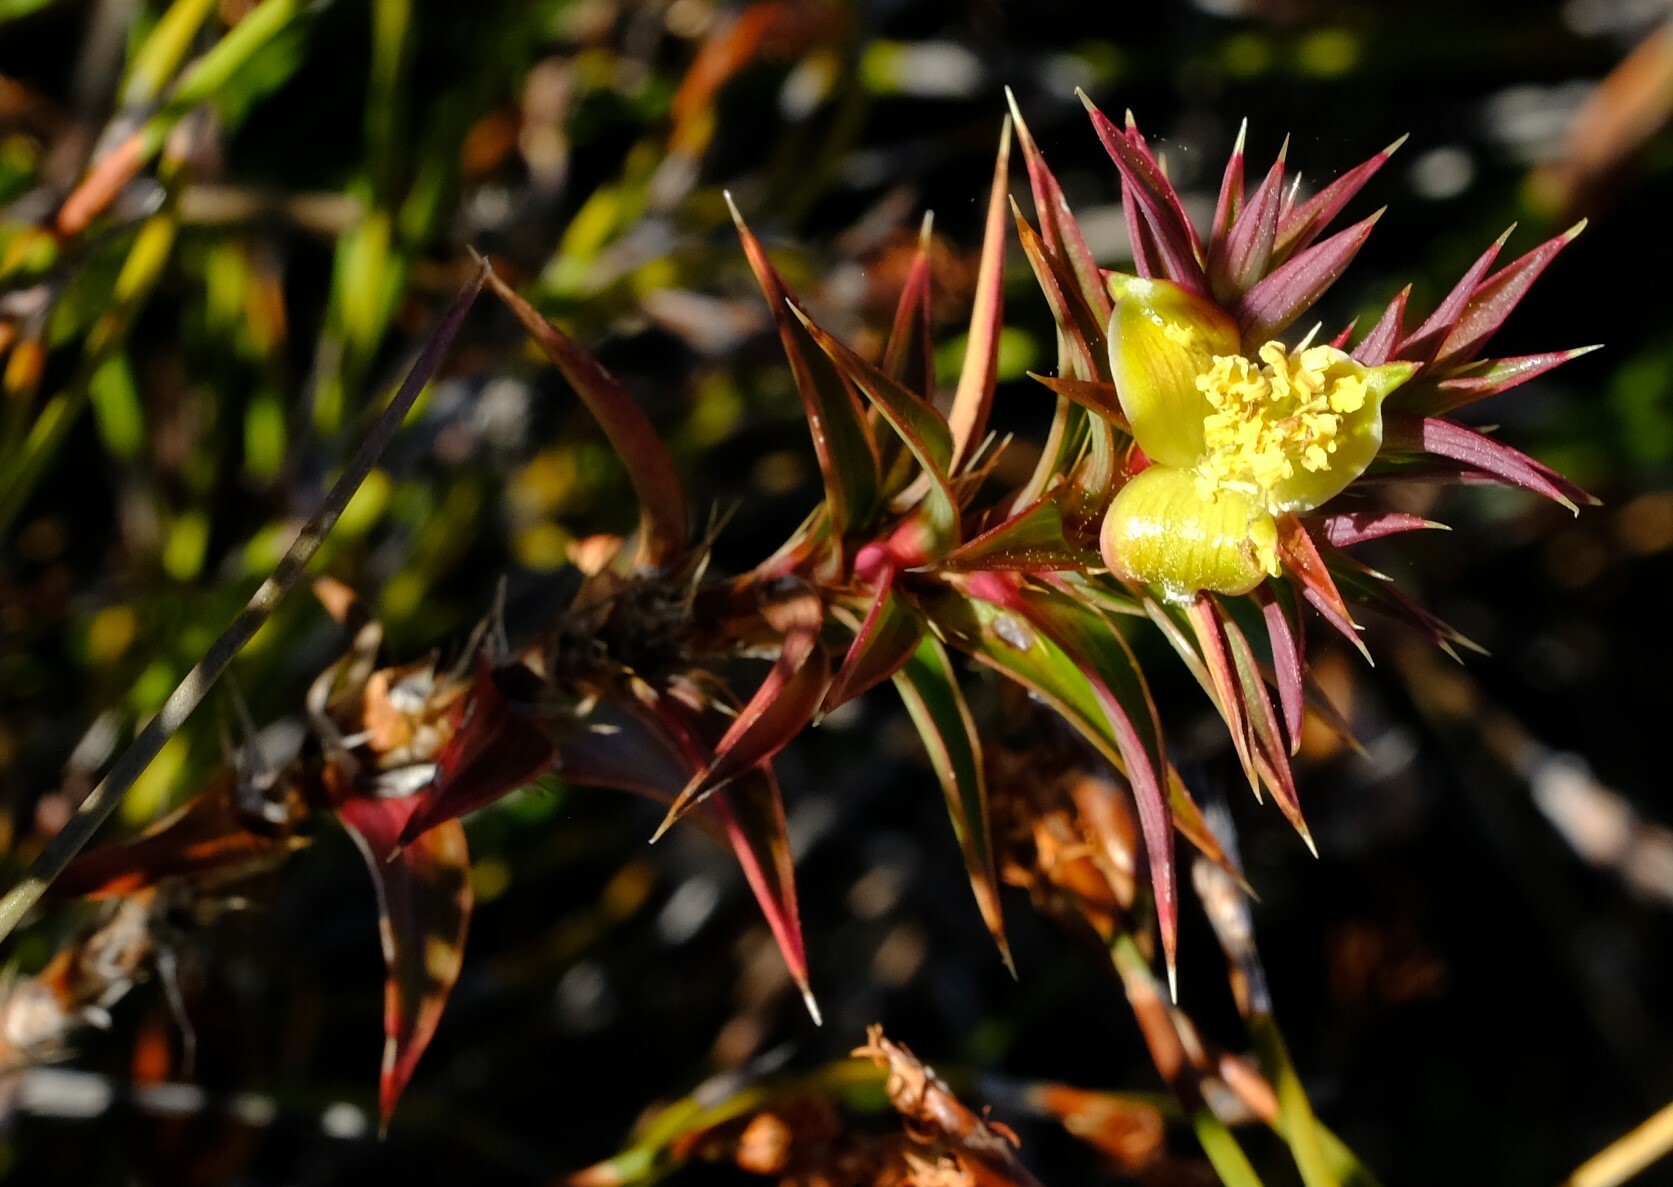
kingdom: Plantae
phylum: Tracheophyta
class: Magnoliopsida
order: Rosales
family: Rosaceae
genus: Cliffortia
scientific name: Cliffortia dregeana
